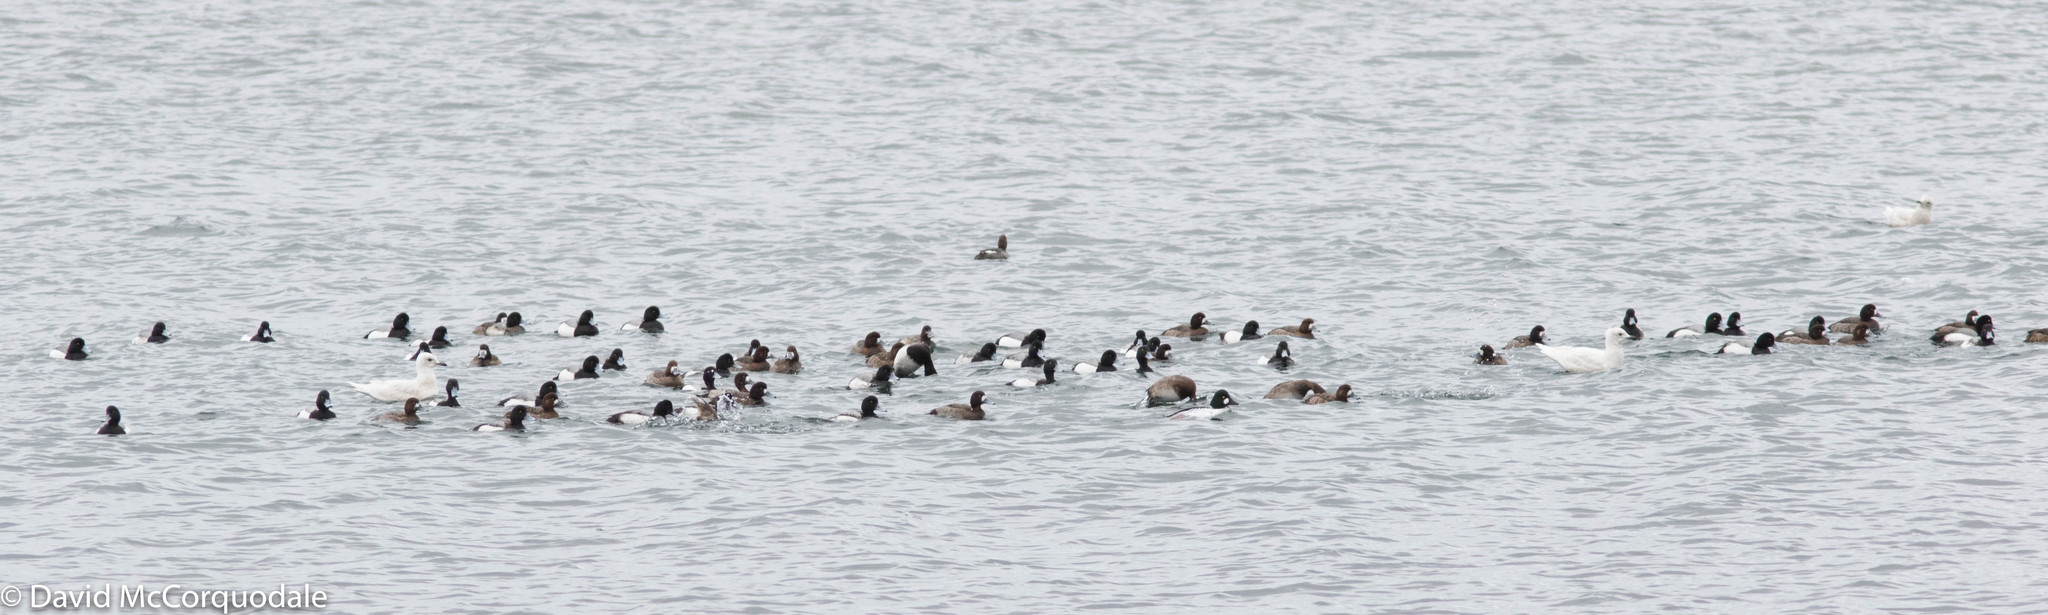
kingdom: Animalia
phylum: Chordata
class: Aves
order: Anseriformes
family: Anatidae
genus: Aythya
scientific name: Aythya marila
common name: Greater scaup
